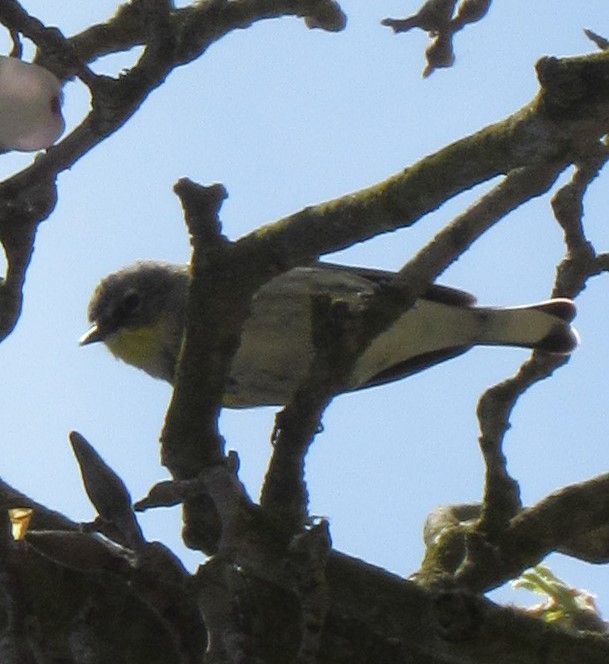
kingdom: Animalia
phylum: Chordata
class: Aves
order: Passeriformes
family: Parulidae
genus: Setophaga
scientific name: Setophaga coronata
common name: Myrtle warbler
